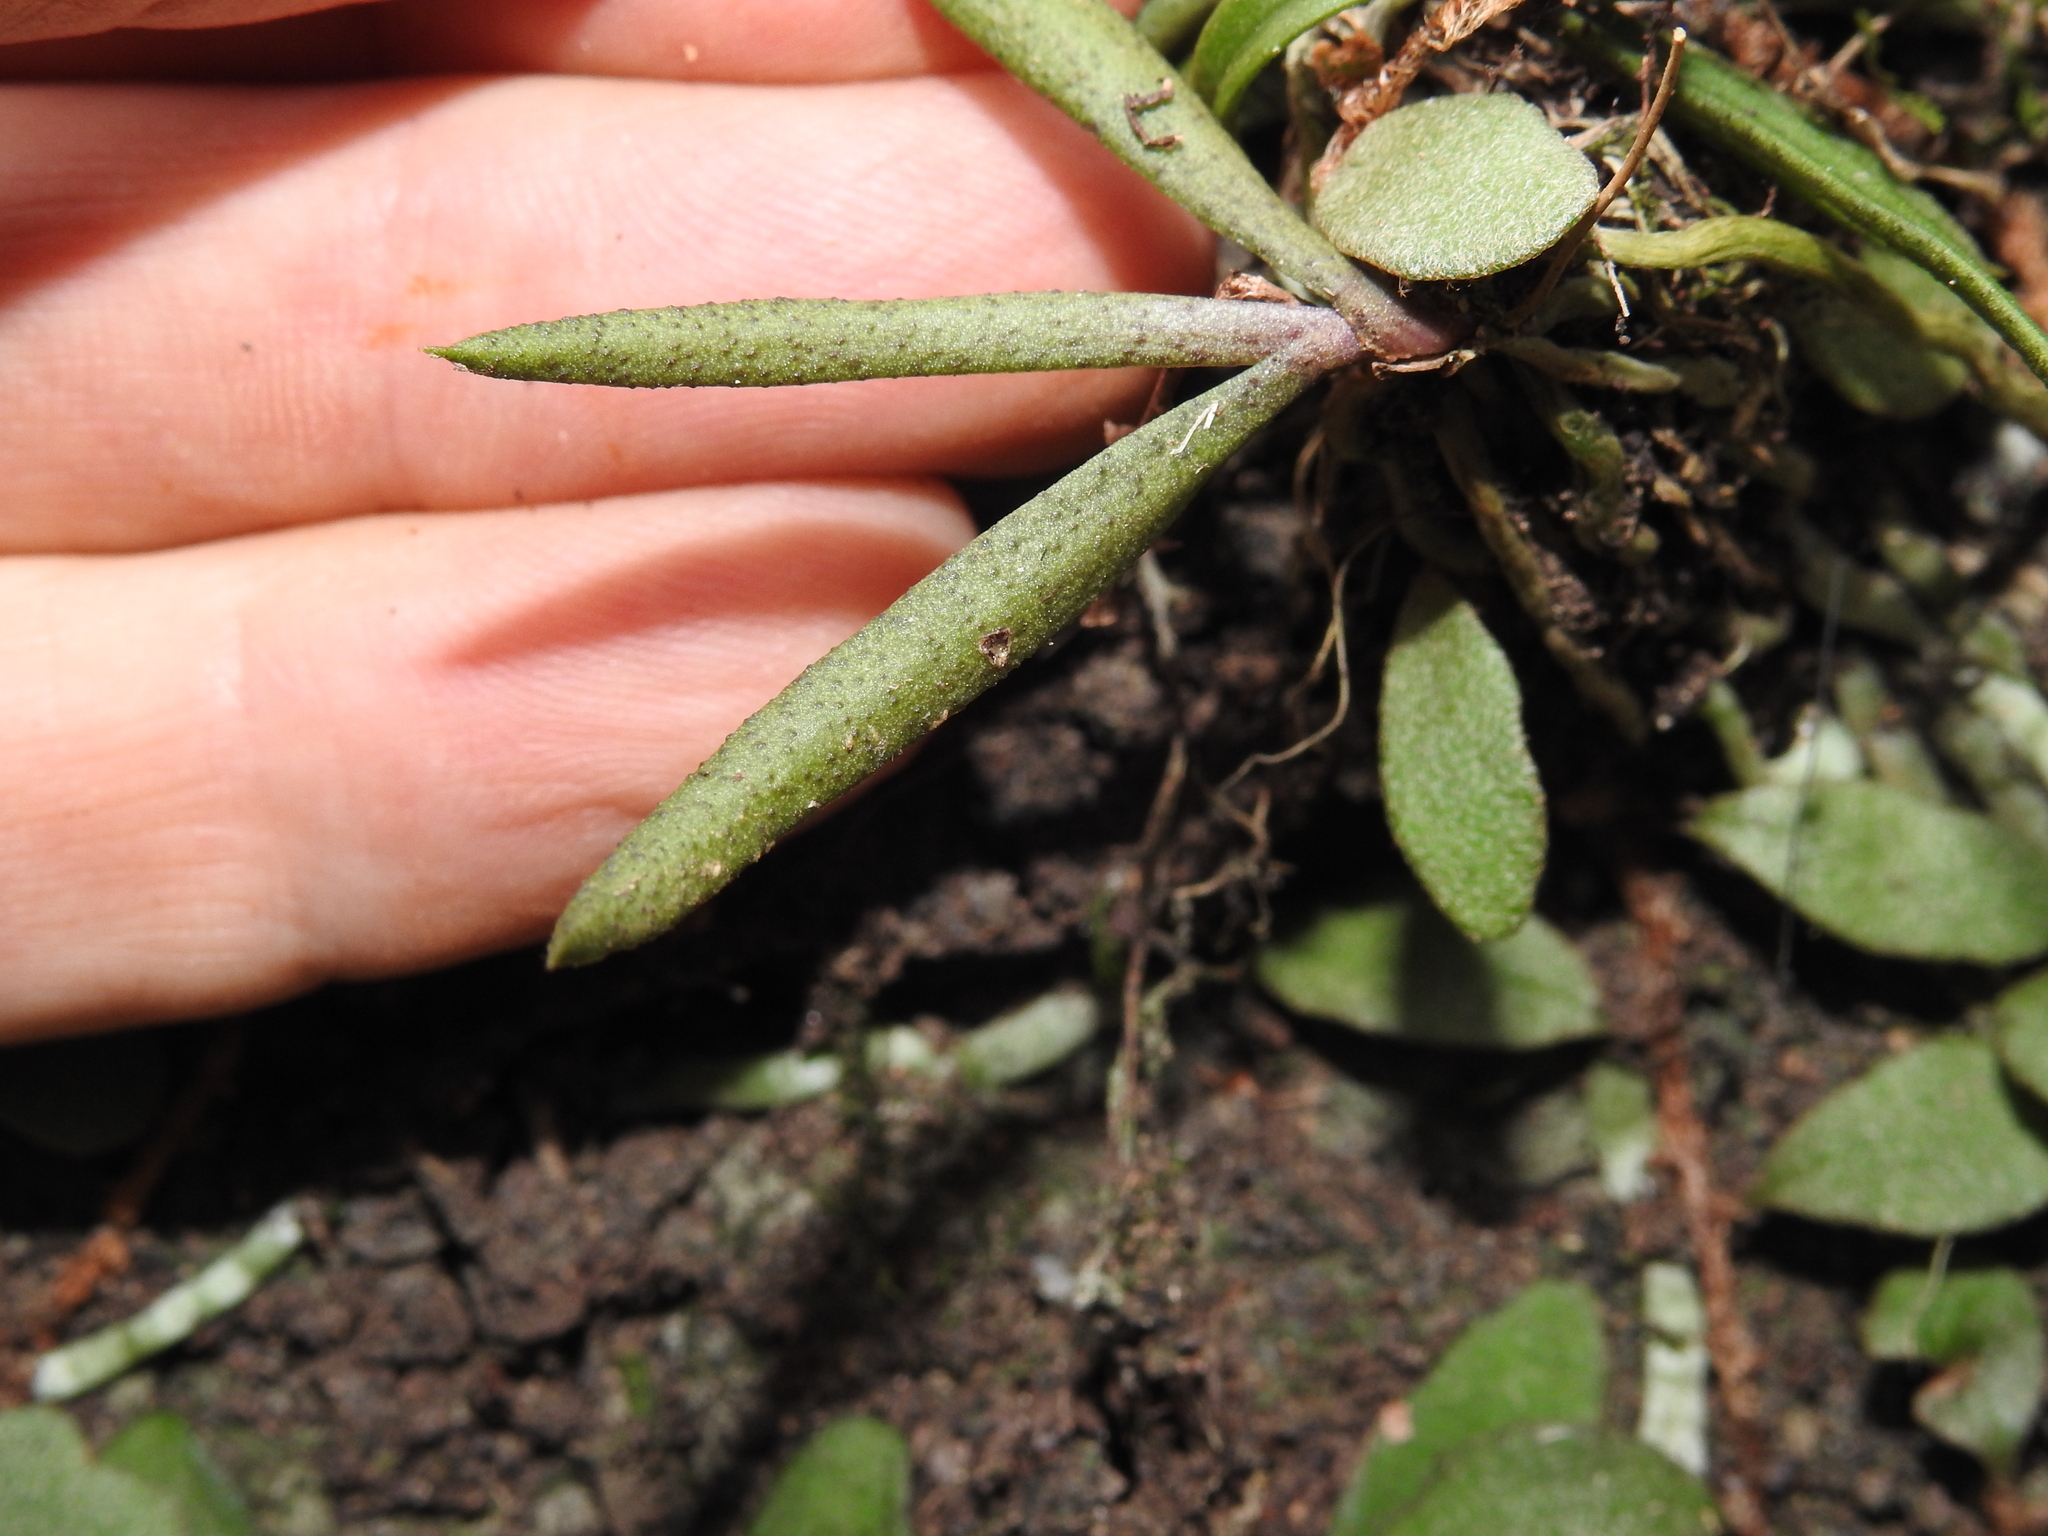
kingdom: Plantae
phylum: Tracheophyta
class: Liliopsida
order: Asparagales
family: Orchidaceae
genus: Sarcochilus
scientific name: Sarcochilus ceciliae
